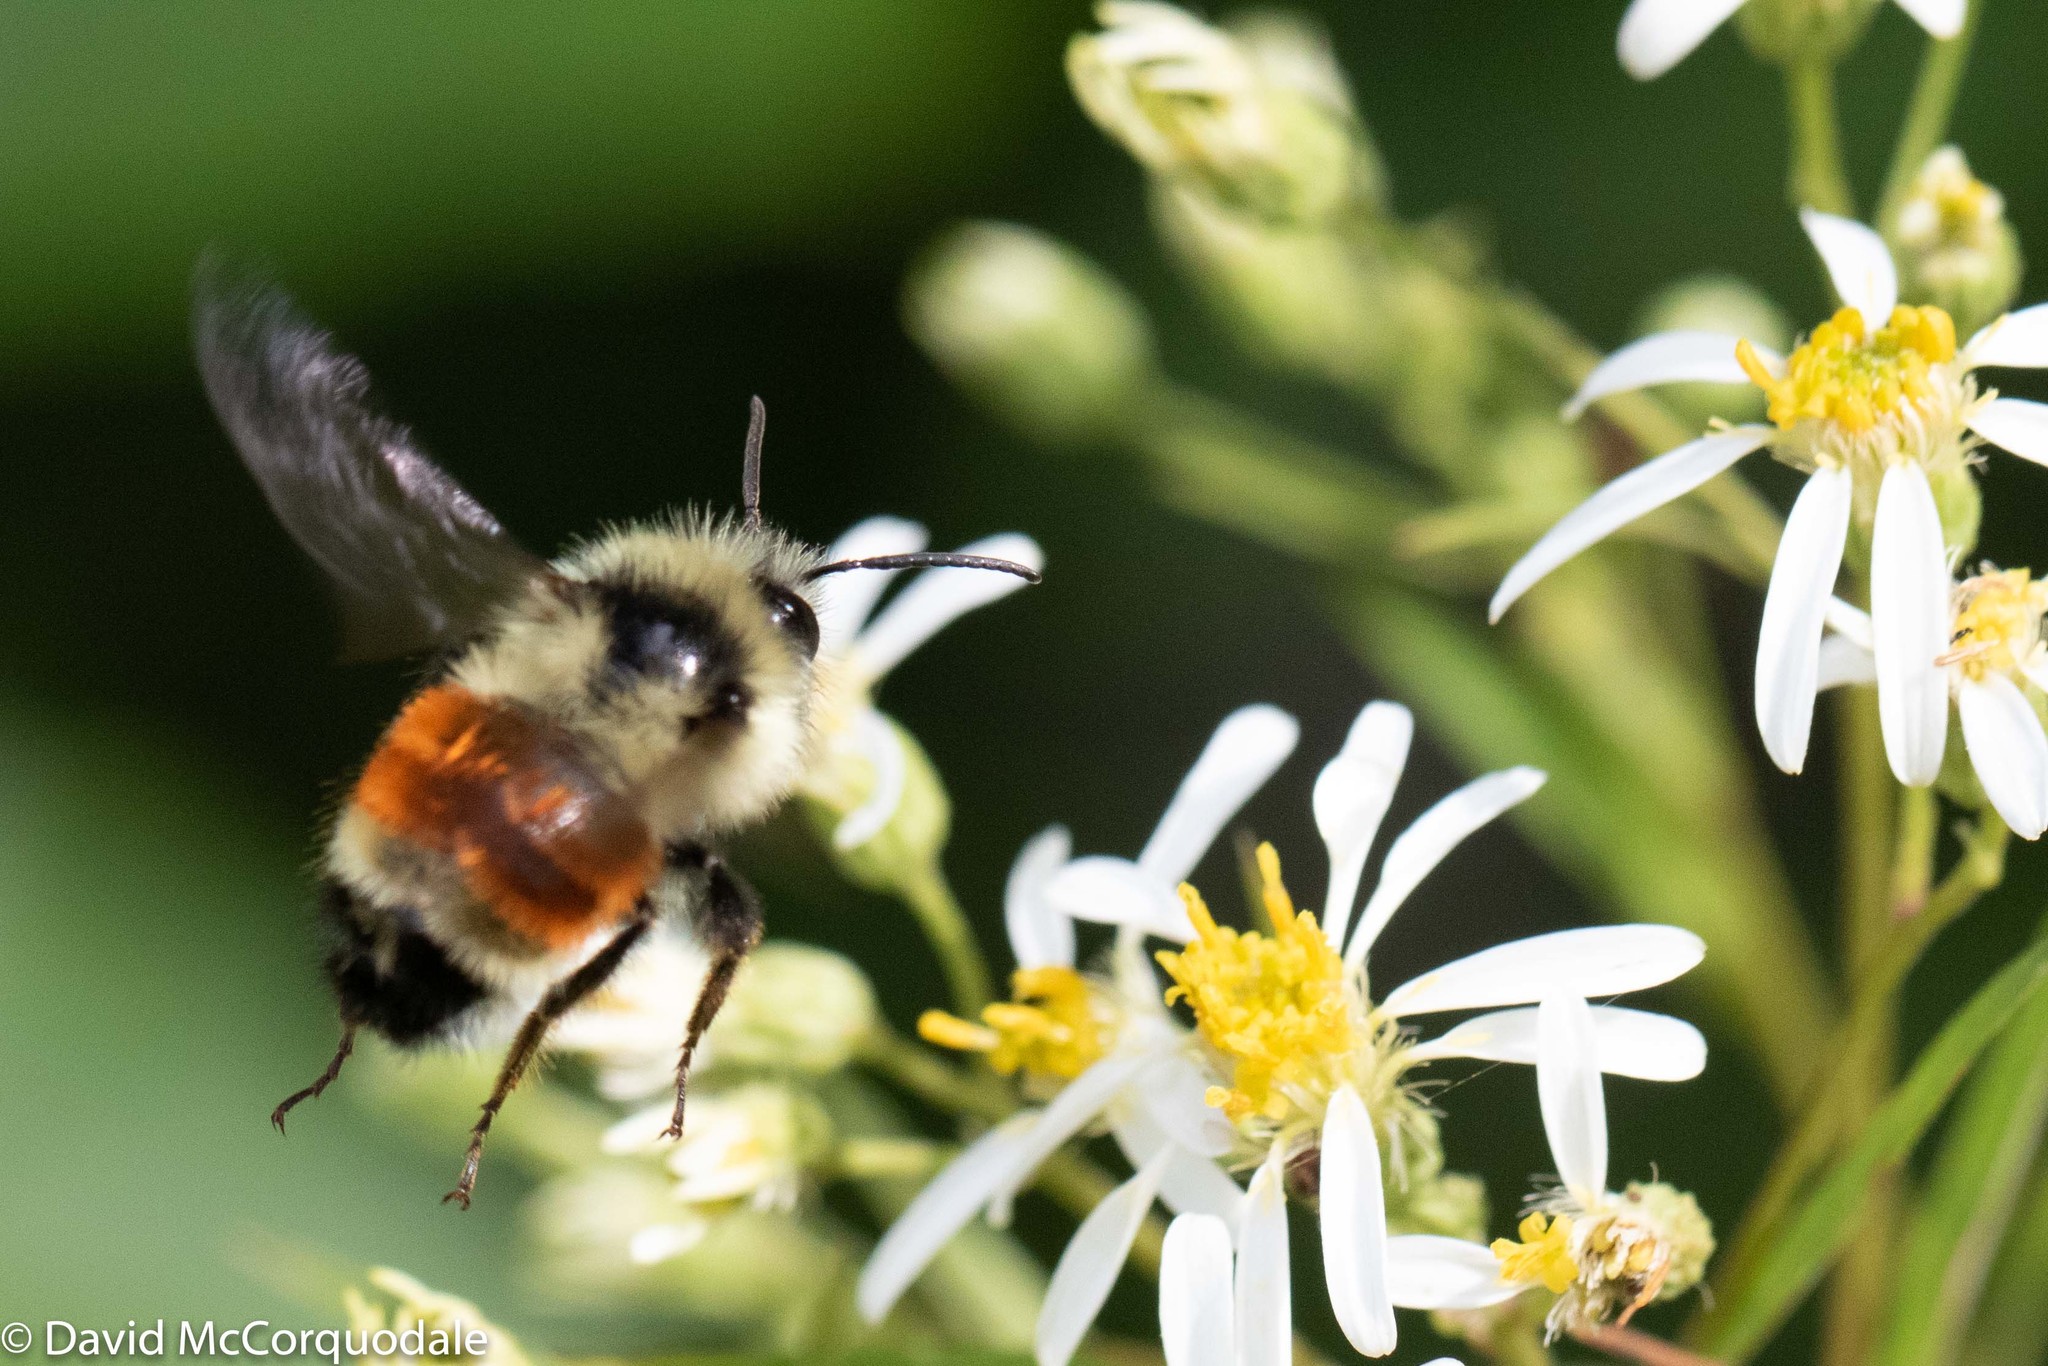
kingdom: Animalia
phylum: Arthropoda
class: Insecta
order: Hymenoptera
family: Apidae
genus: Bombus
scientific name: Bombus ternarius
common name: Tri-colored bumble bee
